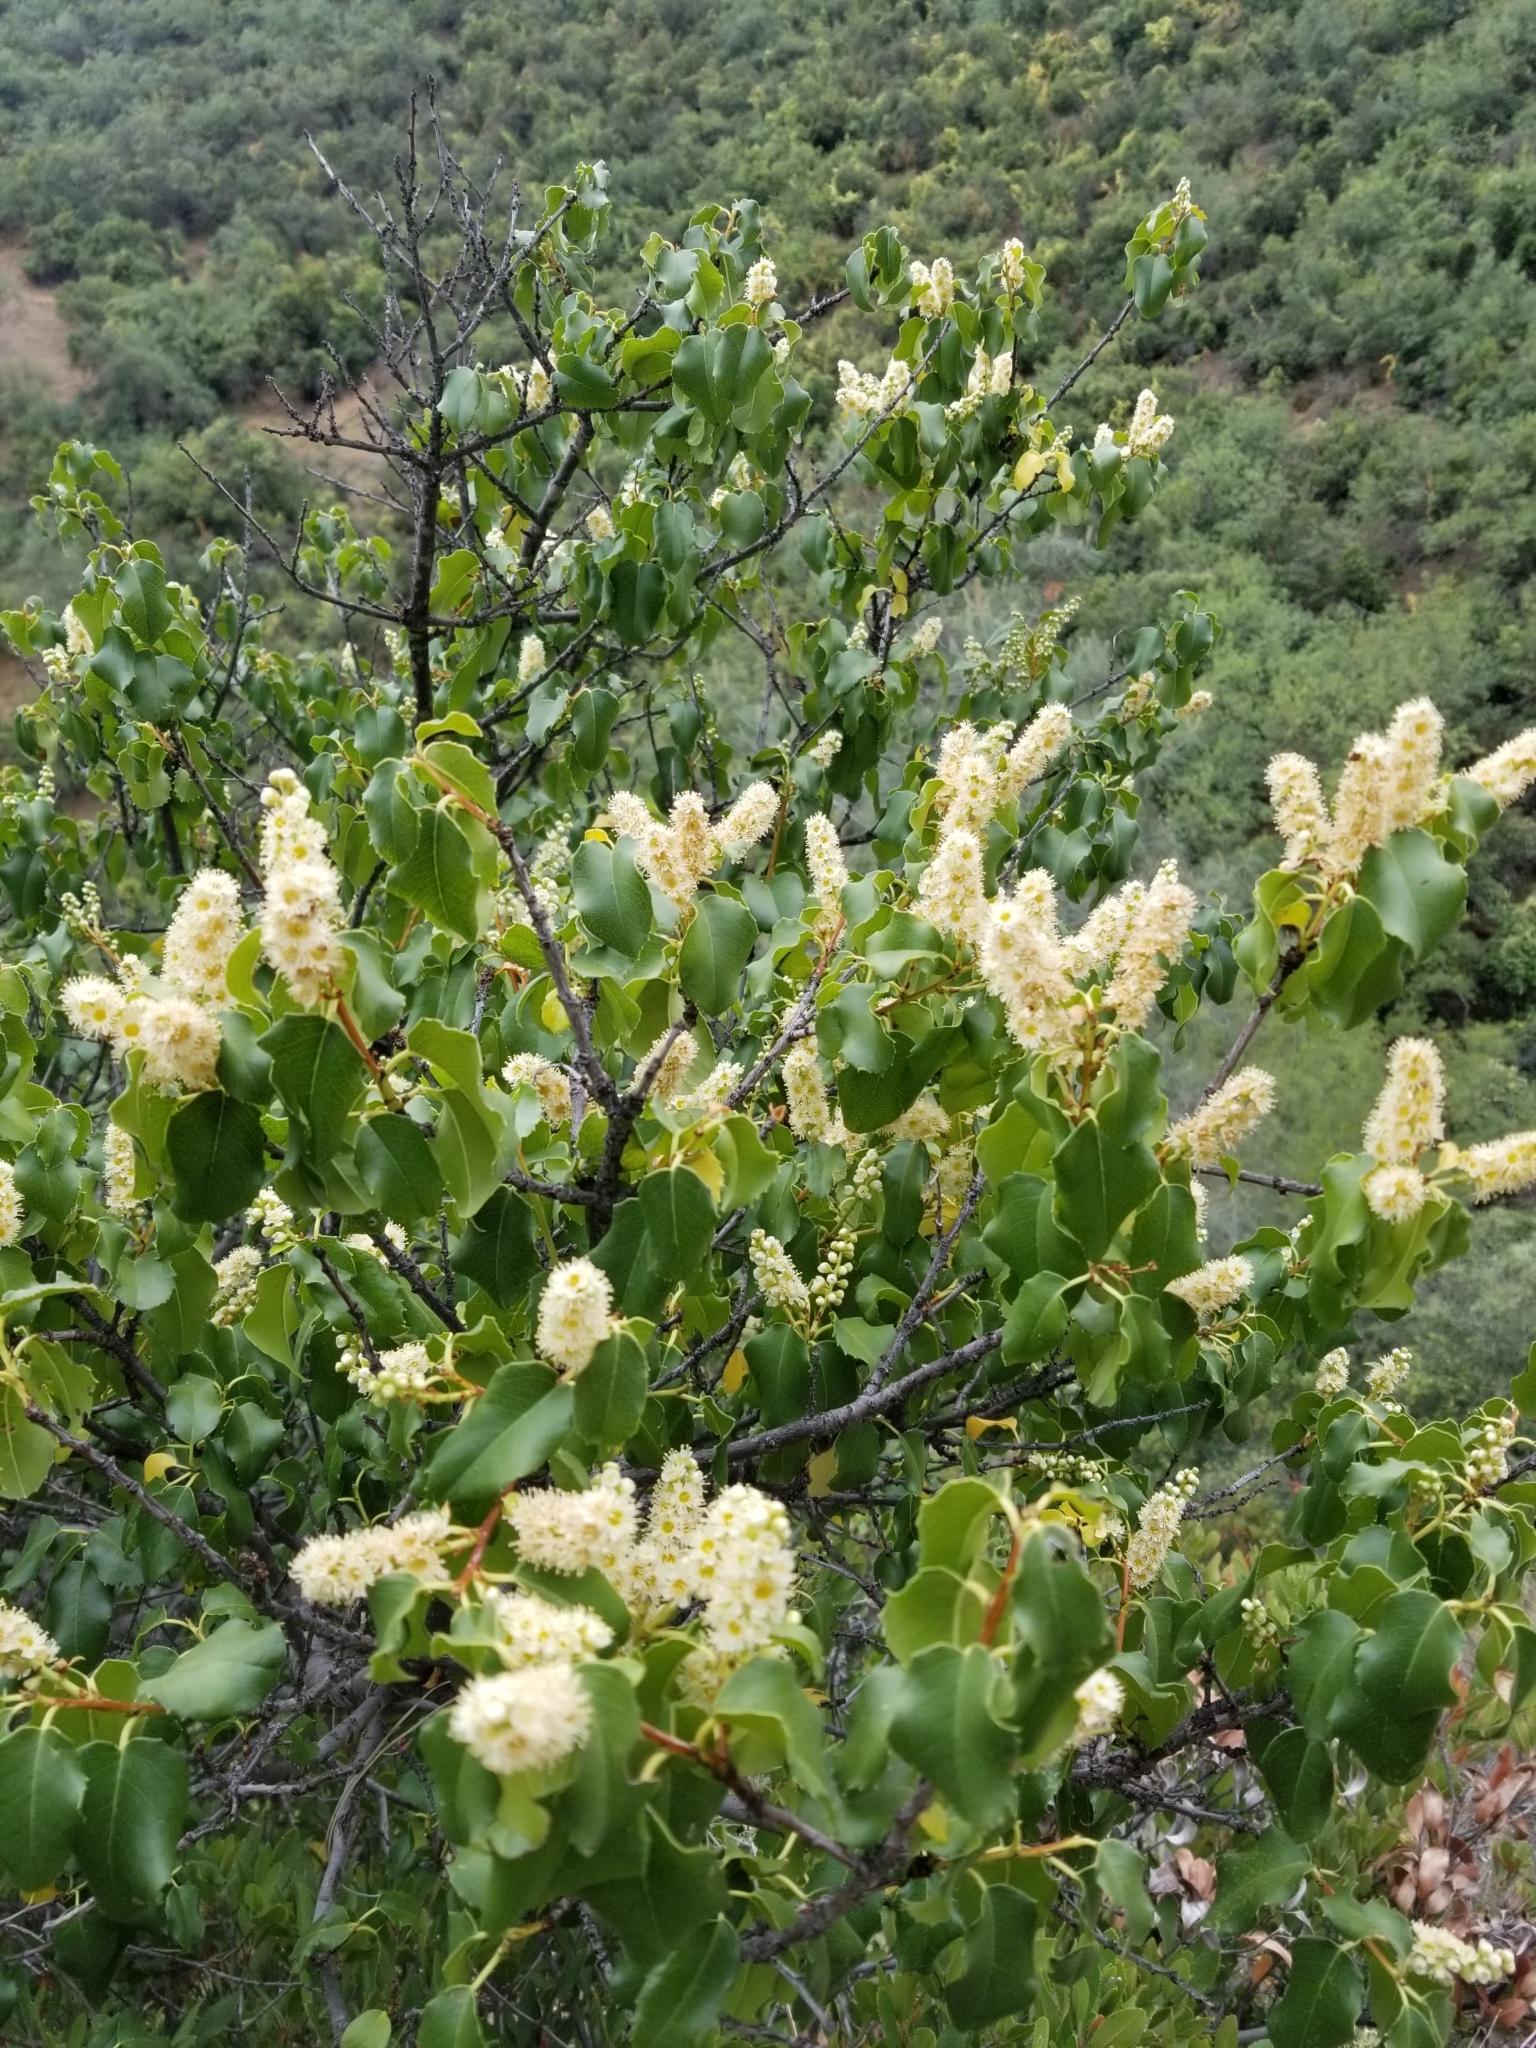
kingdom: Plantae
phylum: Tracheophyta
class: Magnoliopsida
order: Rosales
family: Rosaceae
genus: Prunus
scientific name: Prunus ilicifolia
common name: Hollyleaf cherry
